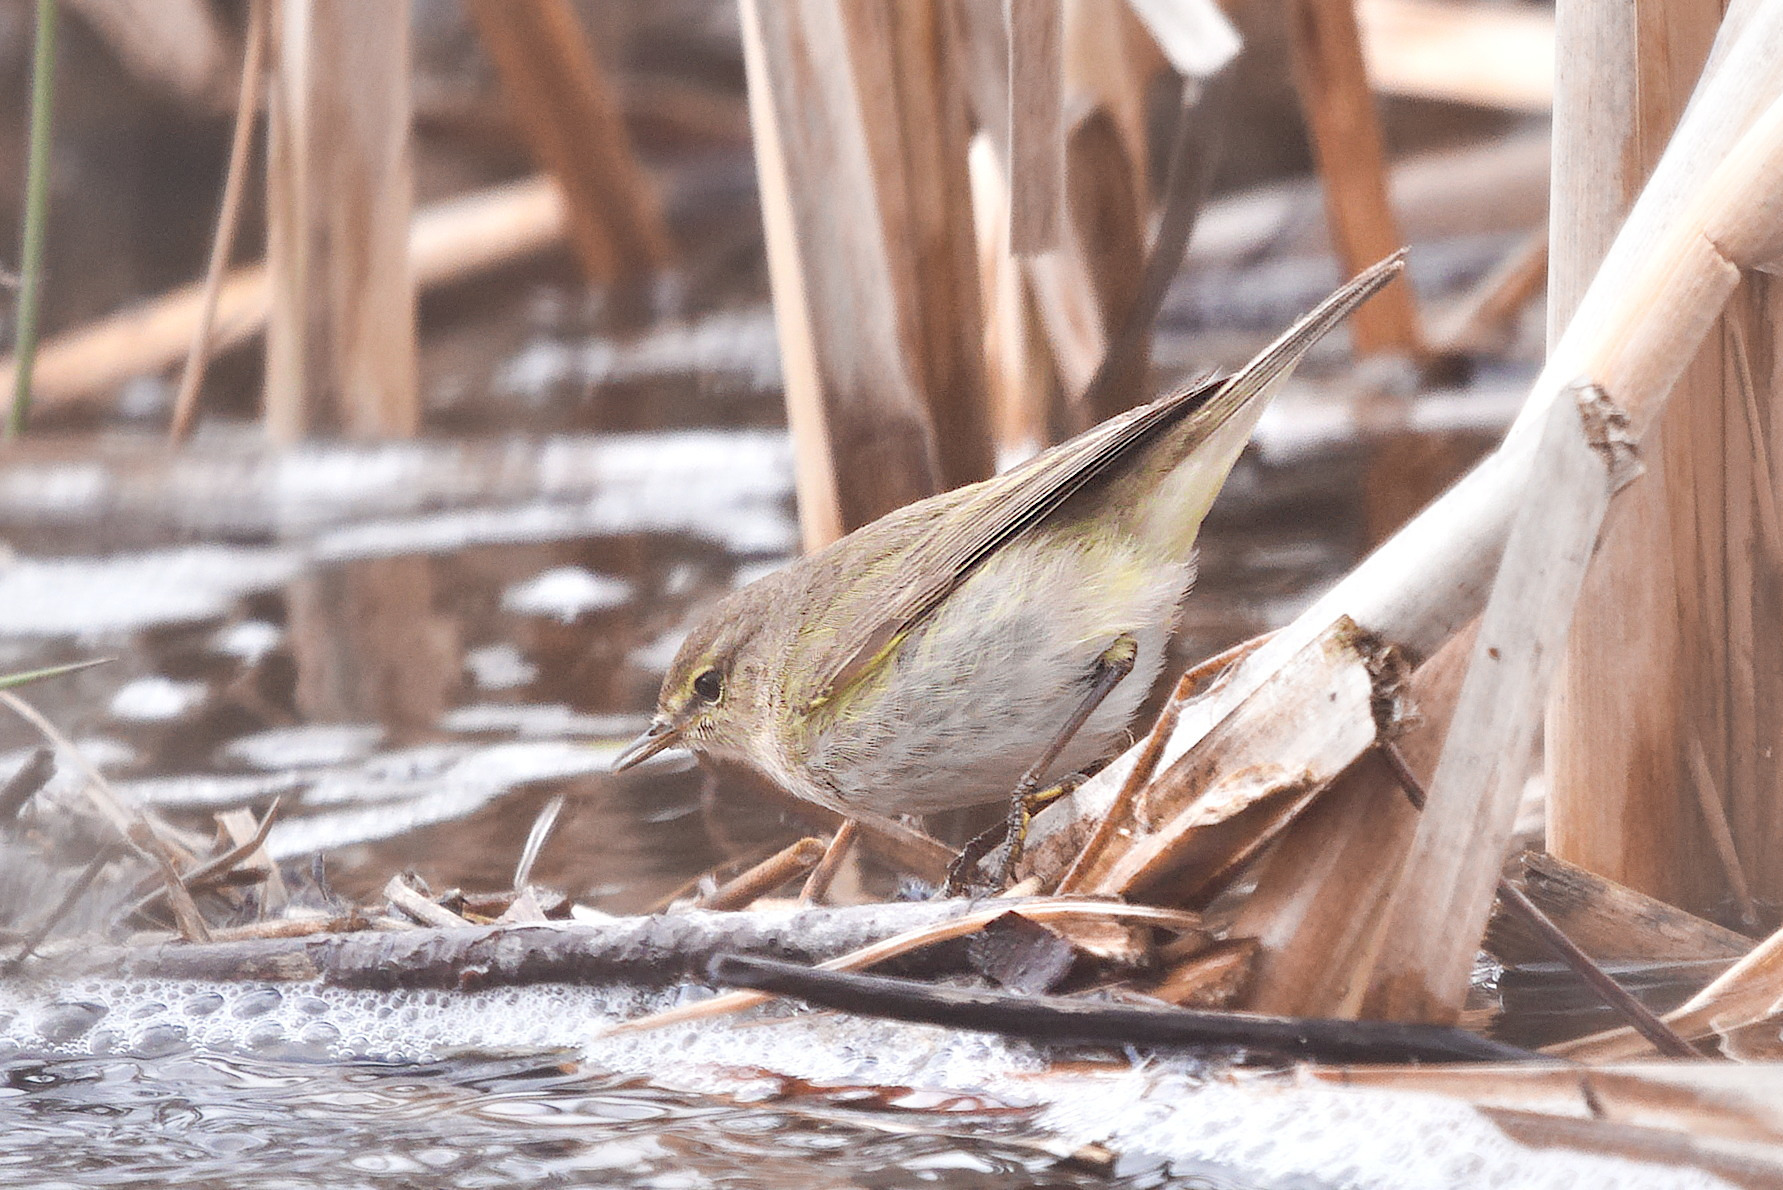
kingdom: Animalia
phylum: Chordata
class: Aves
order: Passeriformes
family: Phylloscopidae
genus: Phylloscopus
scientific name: Phylloscopus collybita
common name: Common chiffchaff
